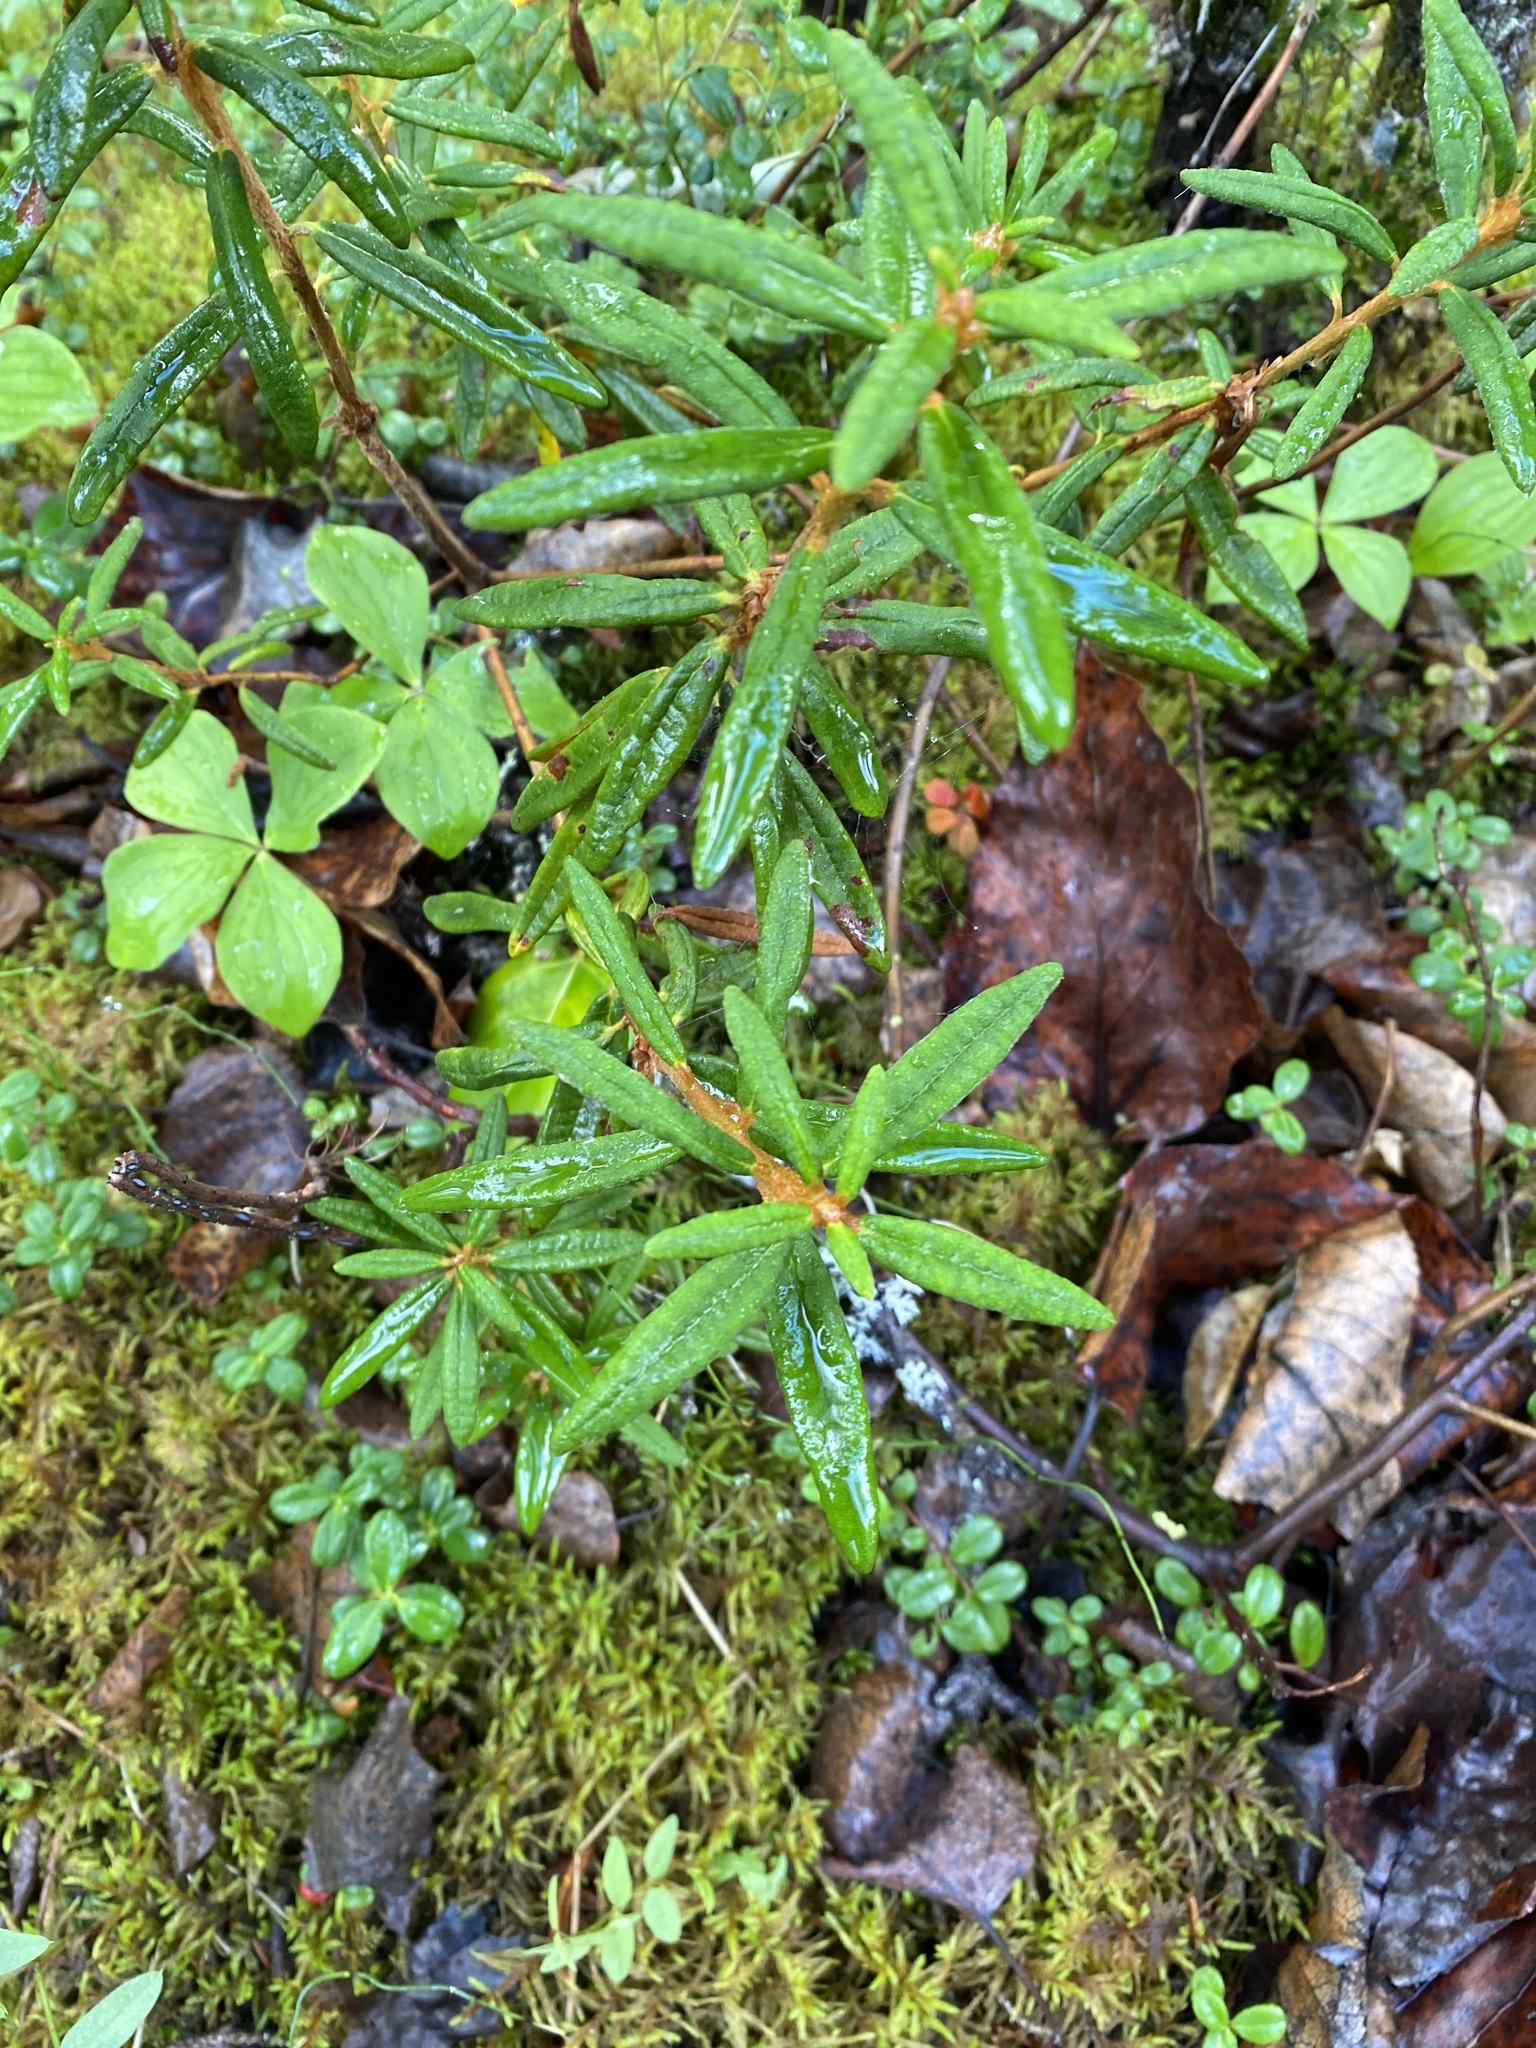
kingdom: Plantae
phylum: Tracheophyta
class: Magnoliopsida
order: Ericales
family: Ericaceae
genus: Rhododendron
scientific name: Rhododendron groenlandicum
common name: Bog labrador tea
